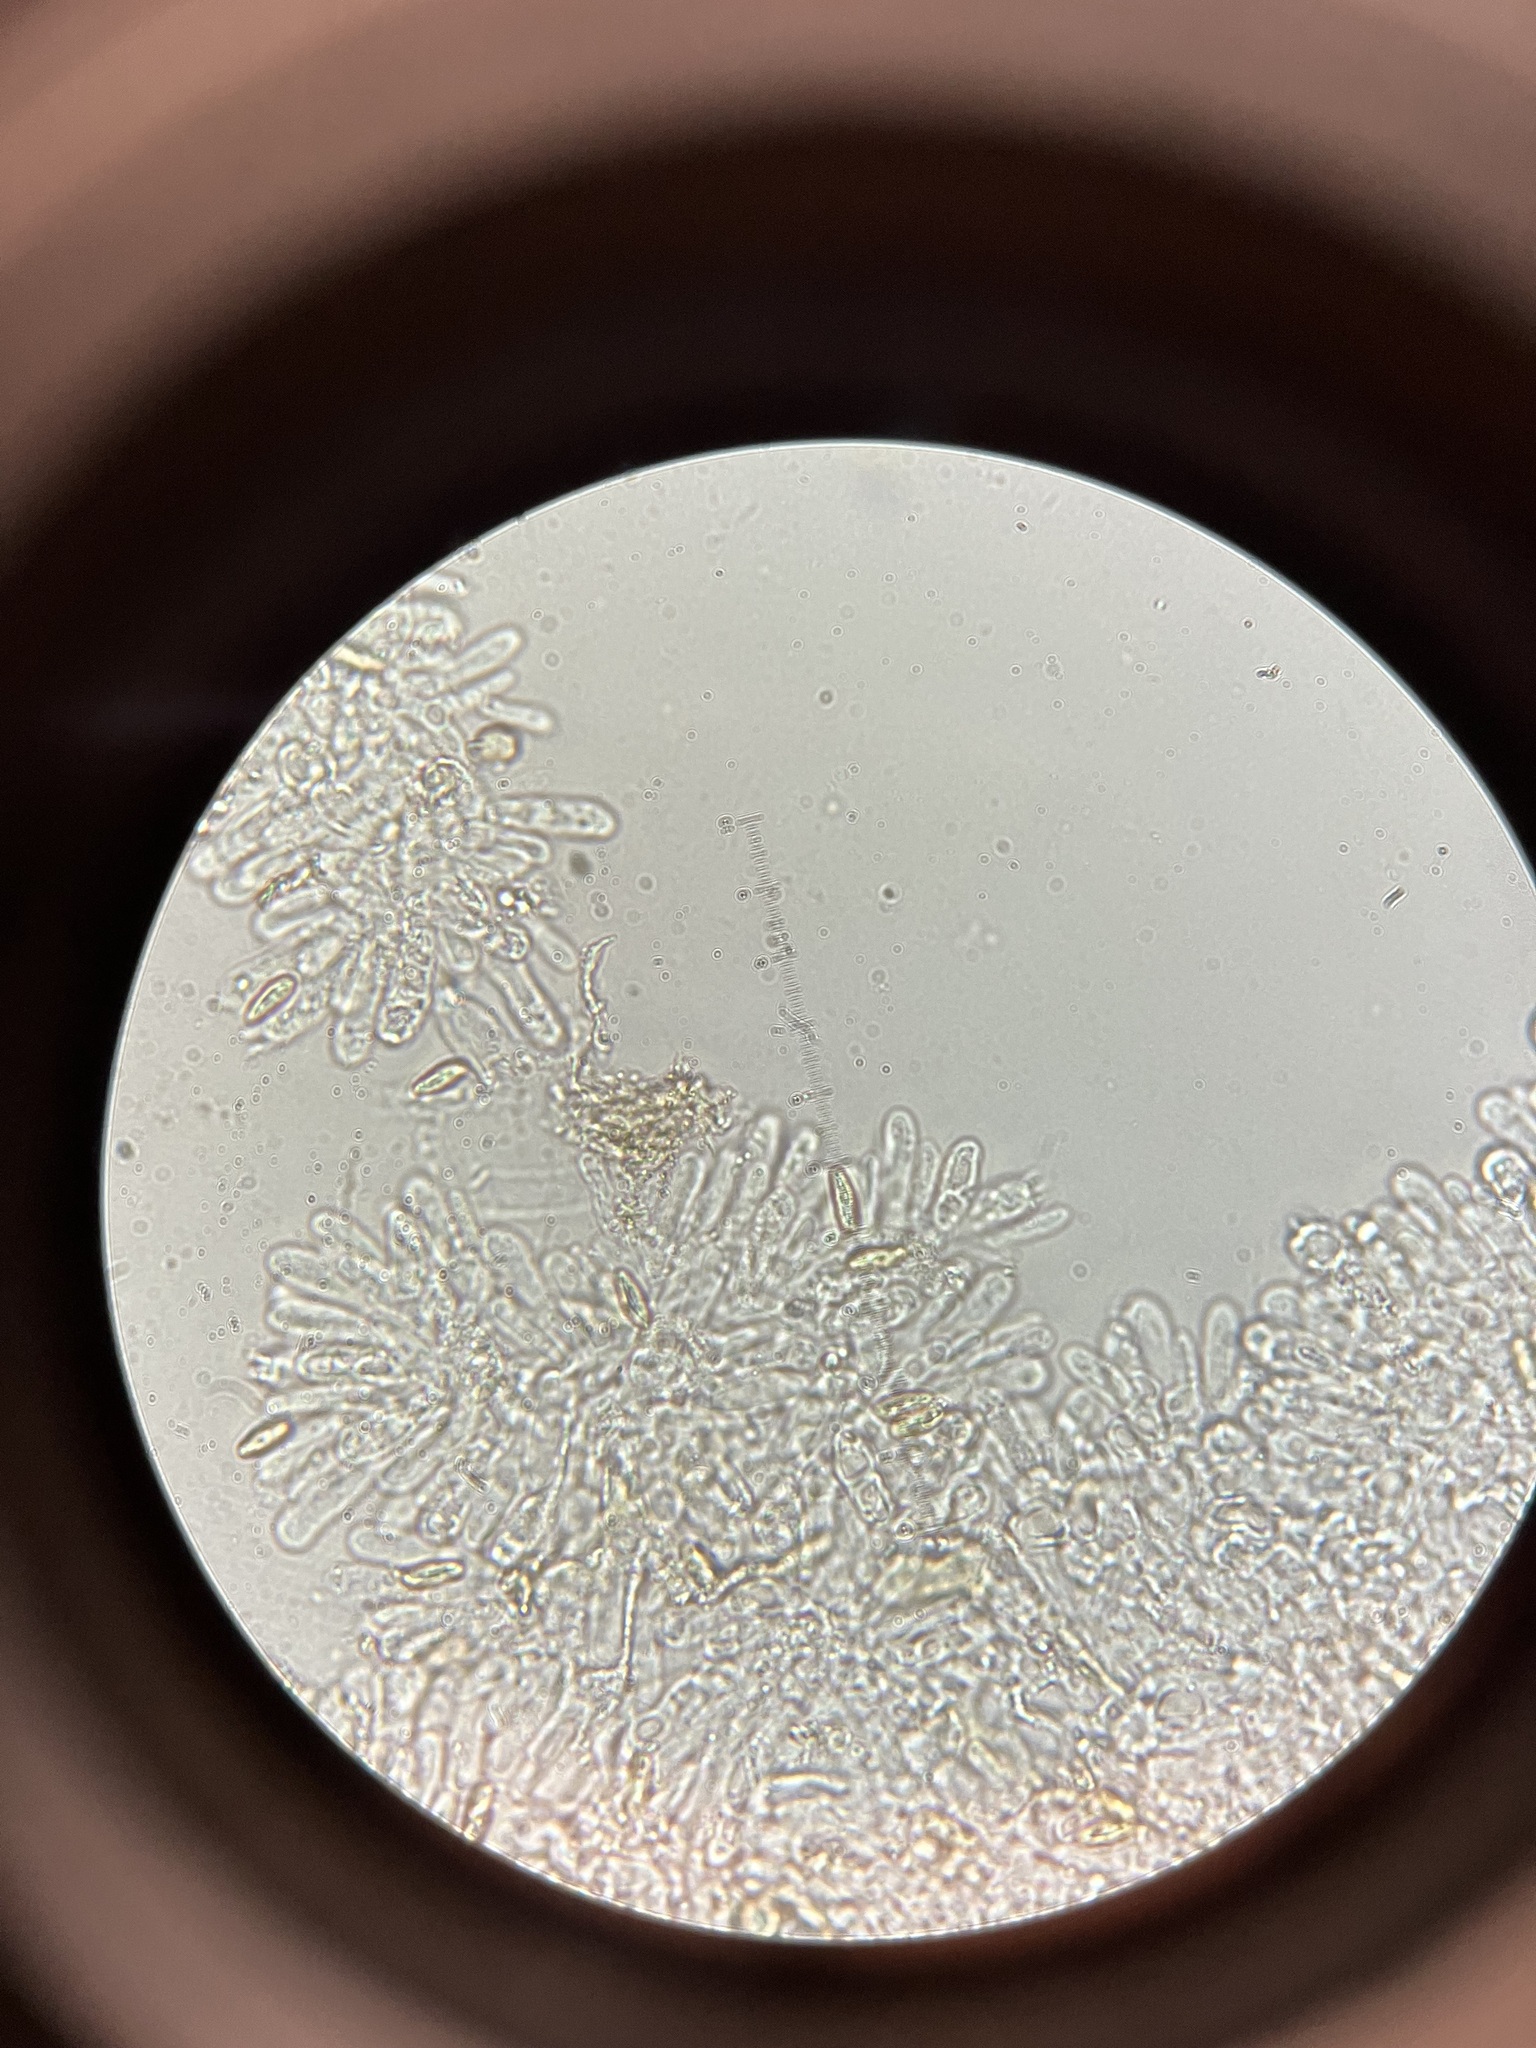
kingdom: Fungi
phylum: Basidiomycota
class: Agaricomycetes
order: Boletales
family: Suillaceae
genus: Suillus
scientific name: Suillus cothurnatus
